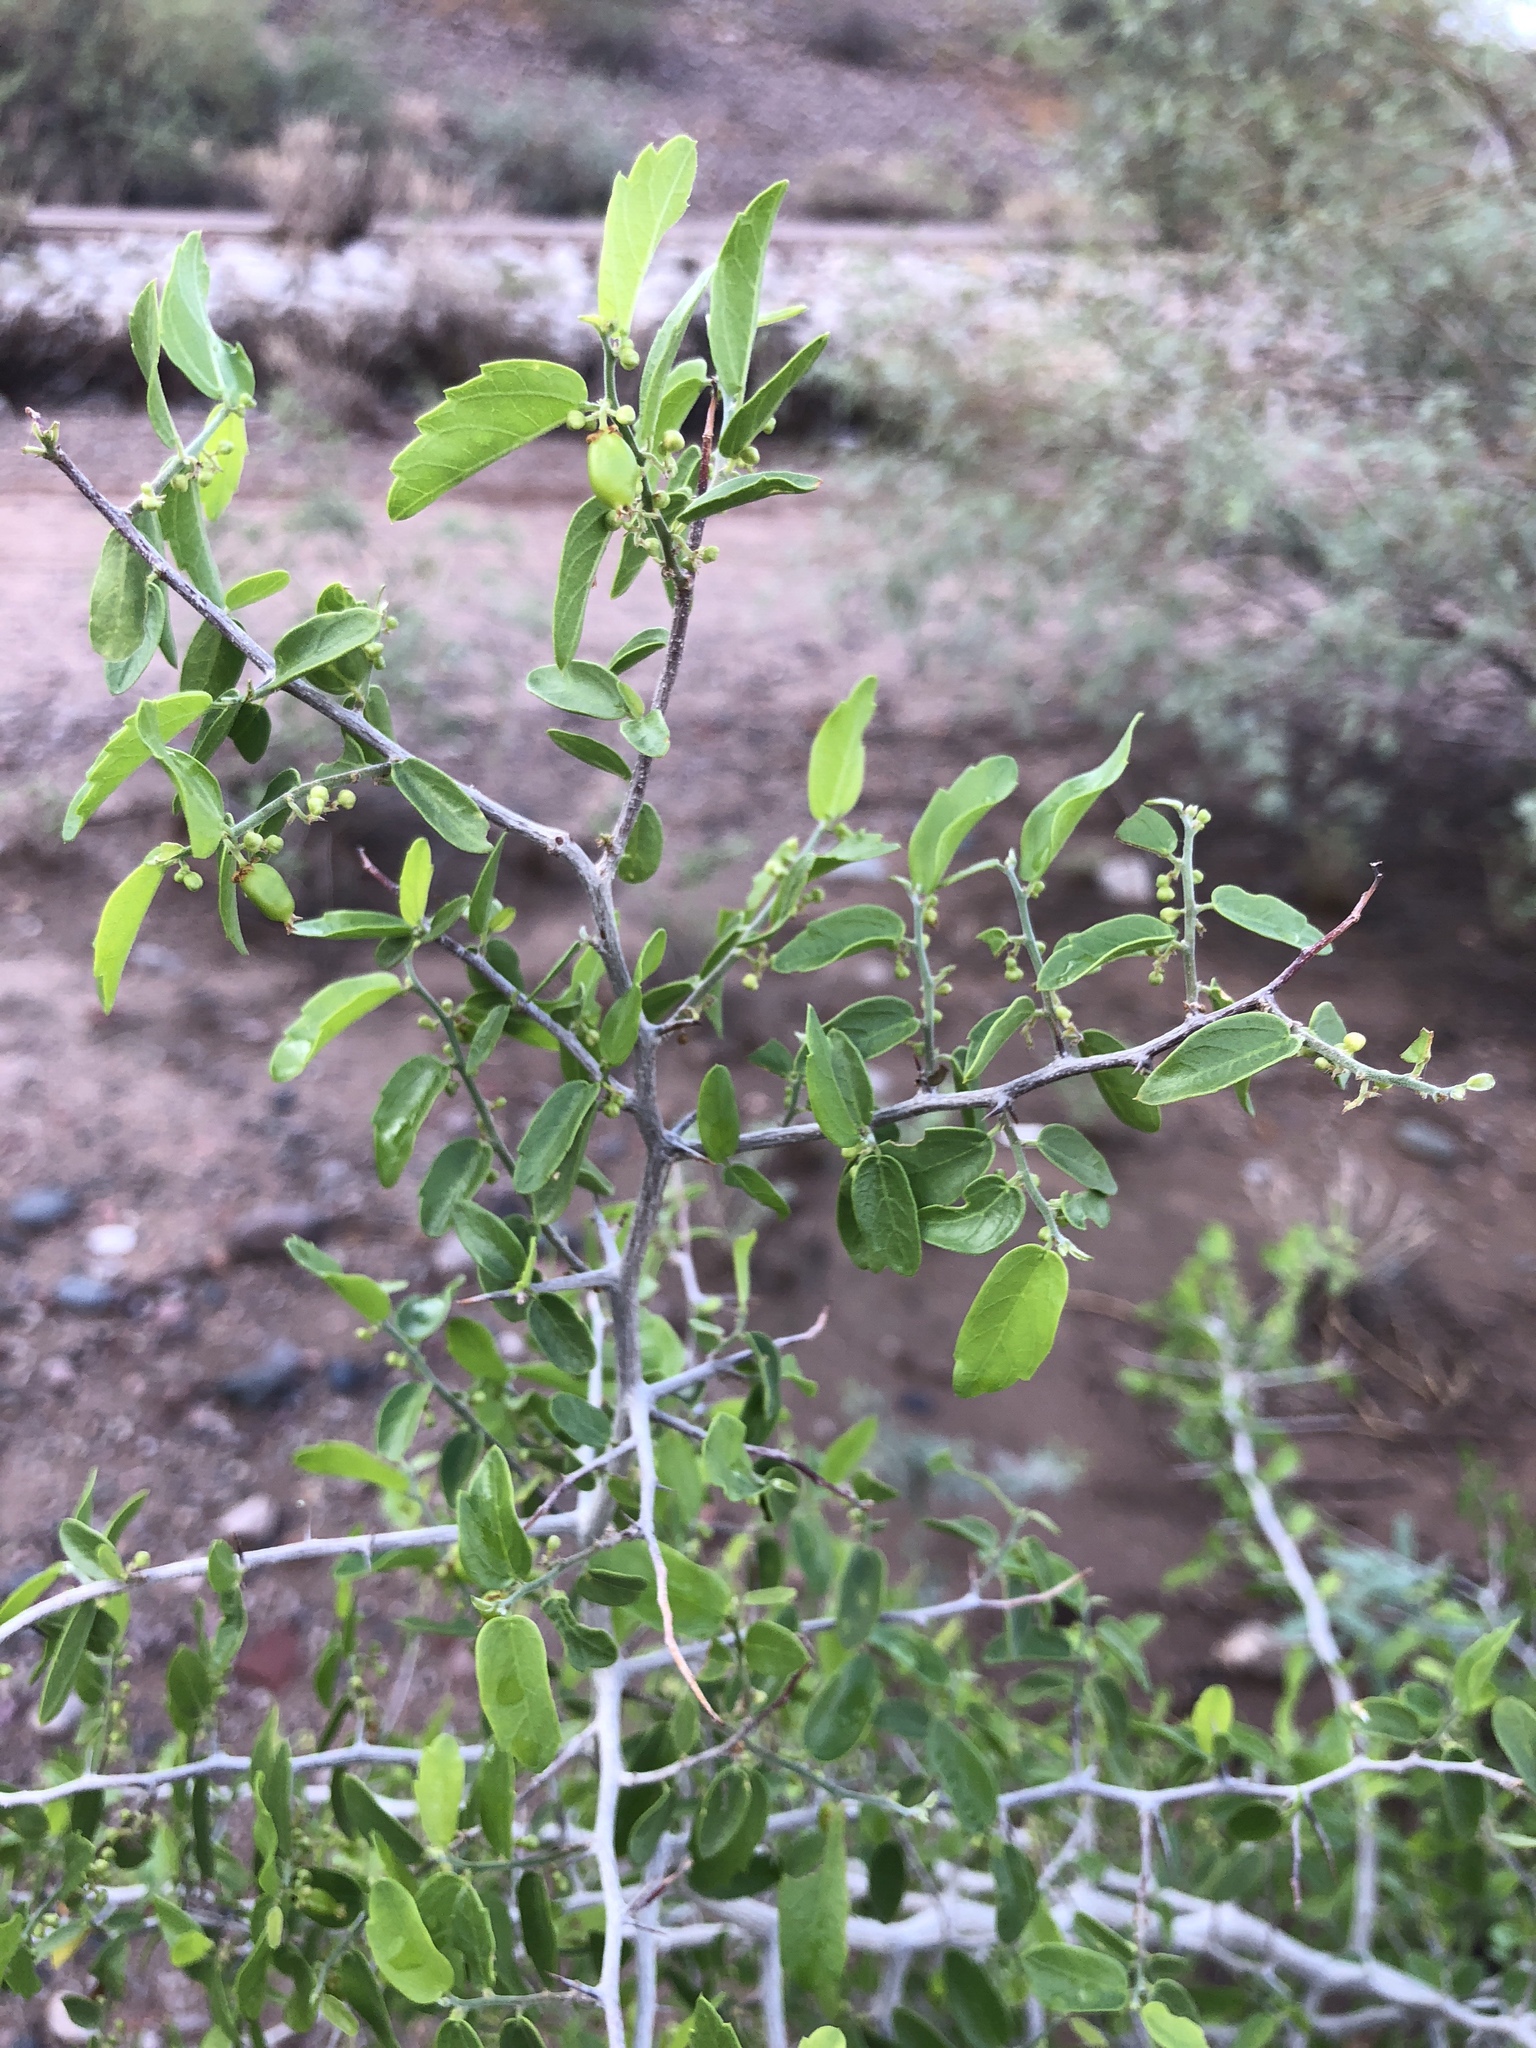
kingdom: Plantae
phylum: Tracheophyta
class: Magnoliopsida
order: Rosales
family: Cannabaceae
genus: Celtis
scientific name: Celtis pallida
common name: Desert hackberry
